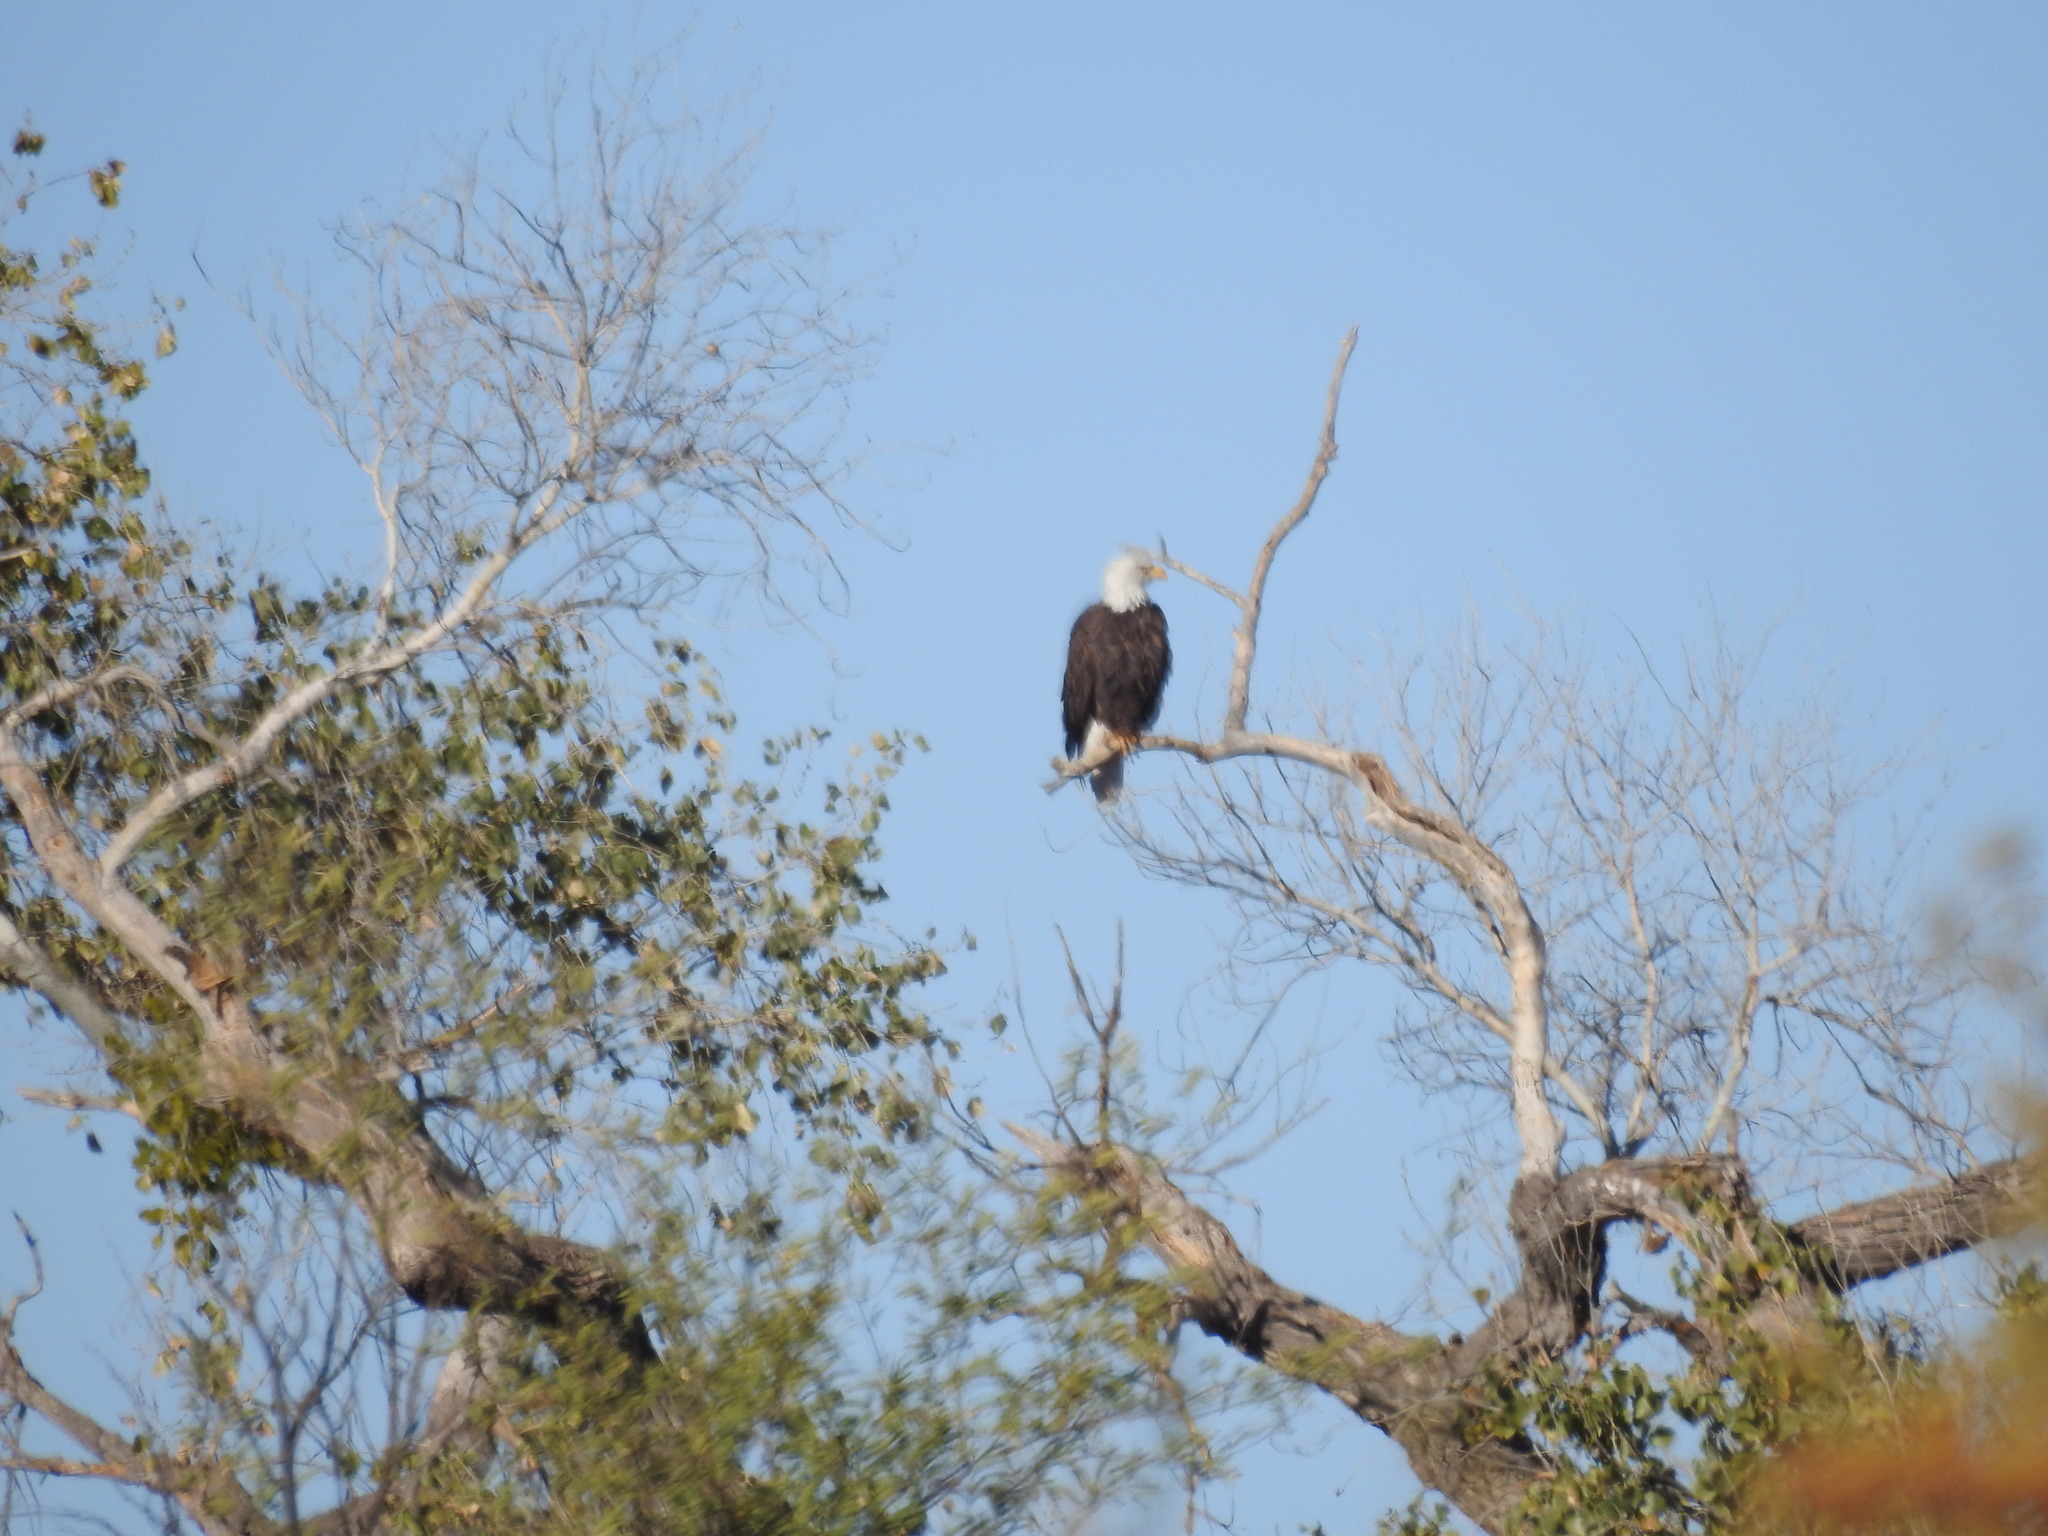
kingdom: Animalia
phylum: Chordata
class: Aves
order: Accipitriformes
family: Accipitridae
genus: Haliaeetus
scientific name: Haliaeetus leucocephalus
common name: Bald eagle
